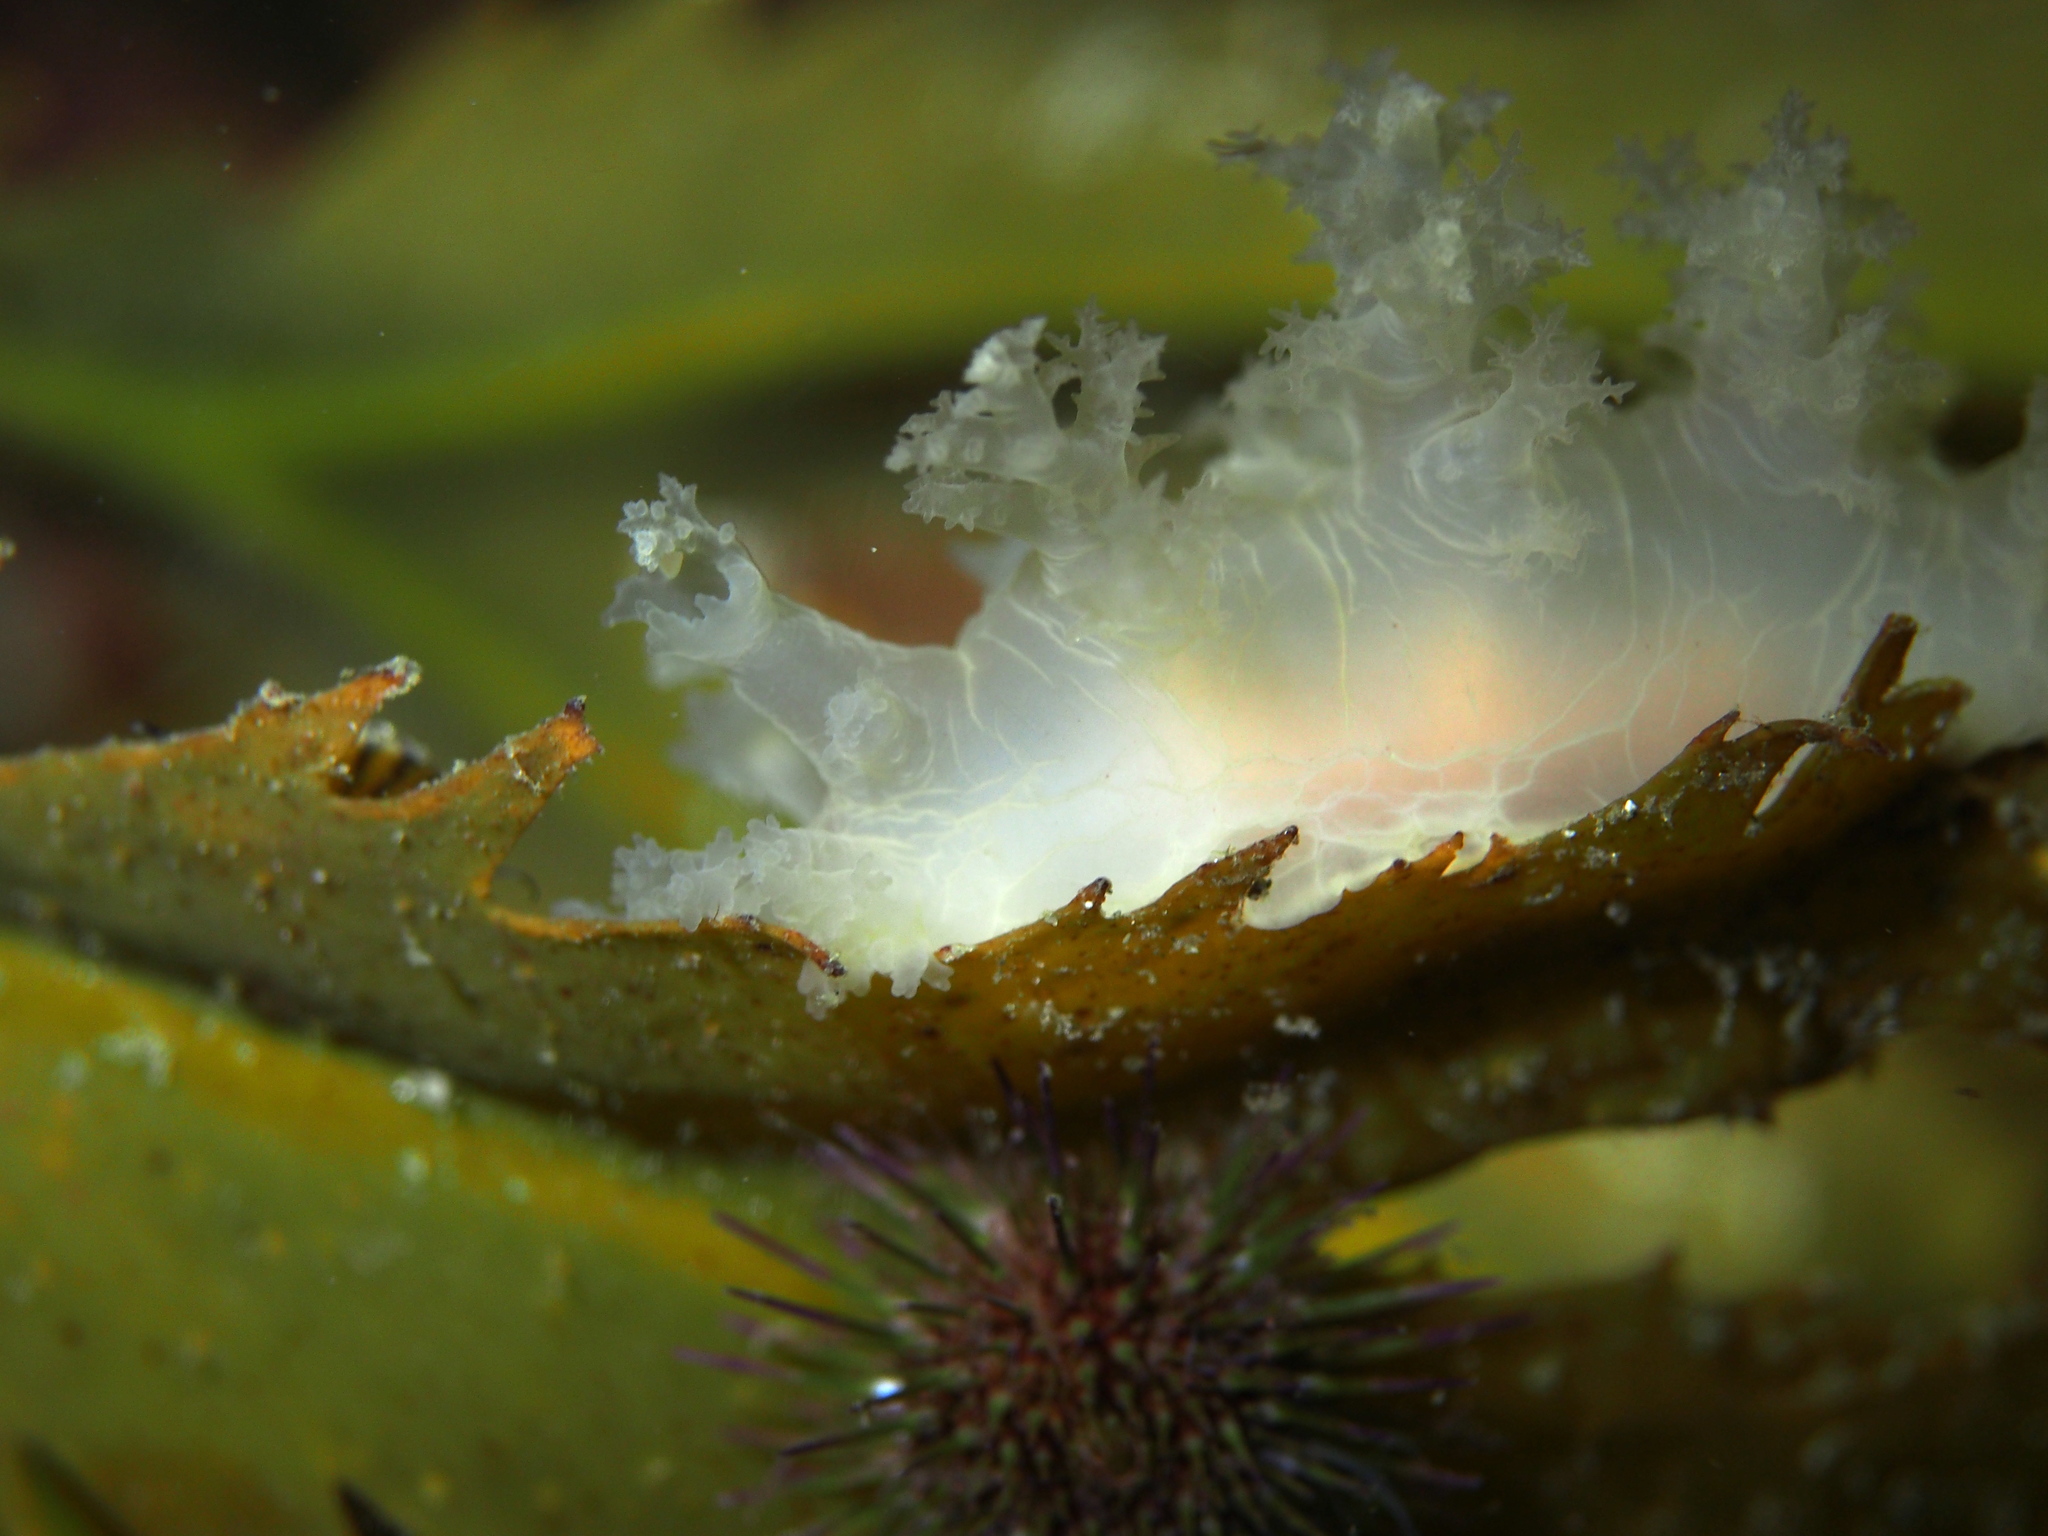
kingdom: Animalia
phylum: Mollusca
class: Gastropoda
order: Nudibranchia
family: Dendronotidae
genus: Dendronotus
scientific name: Dendronotus lacteus
